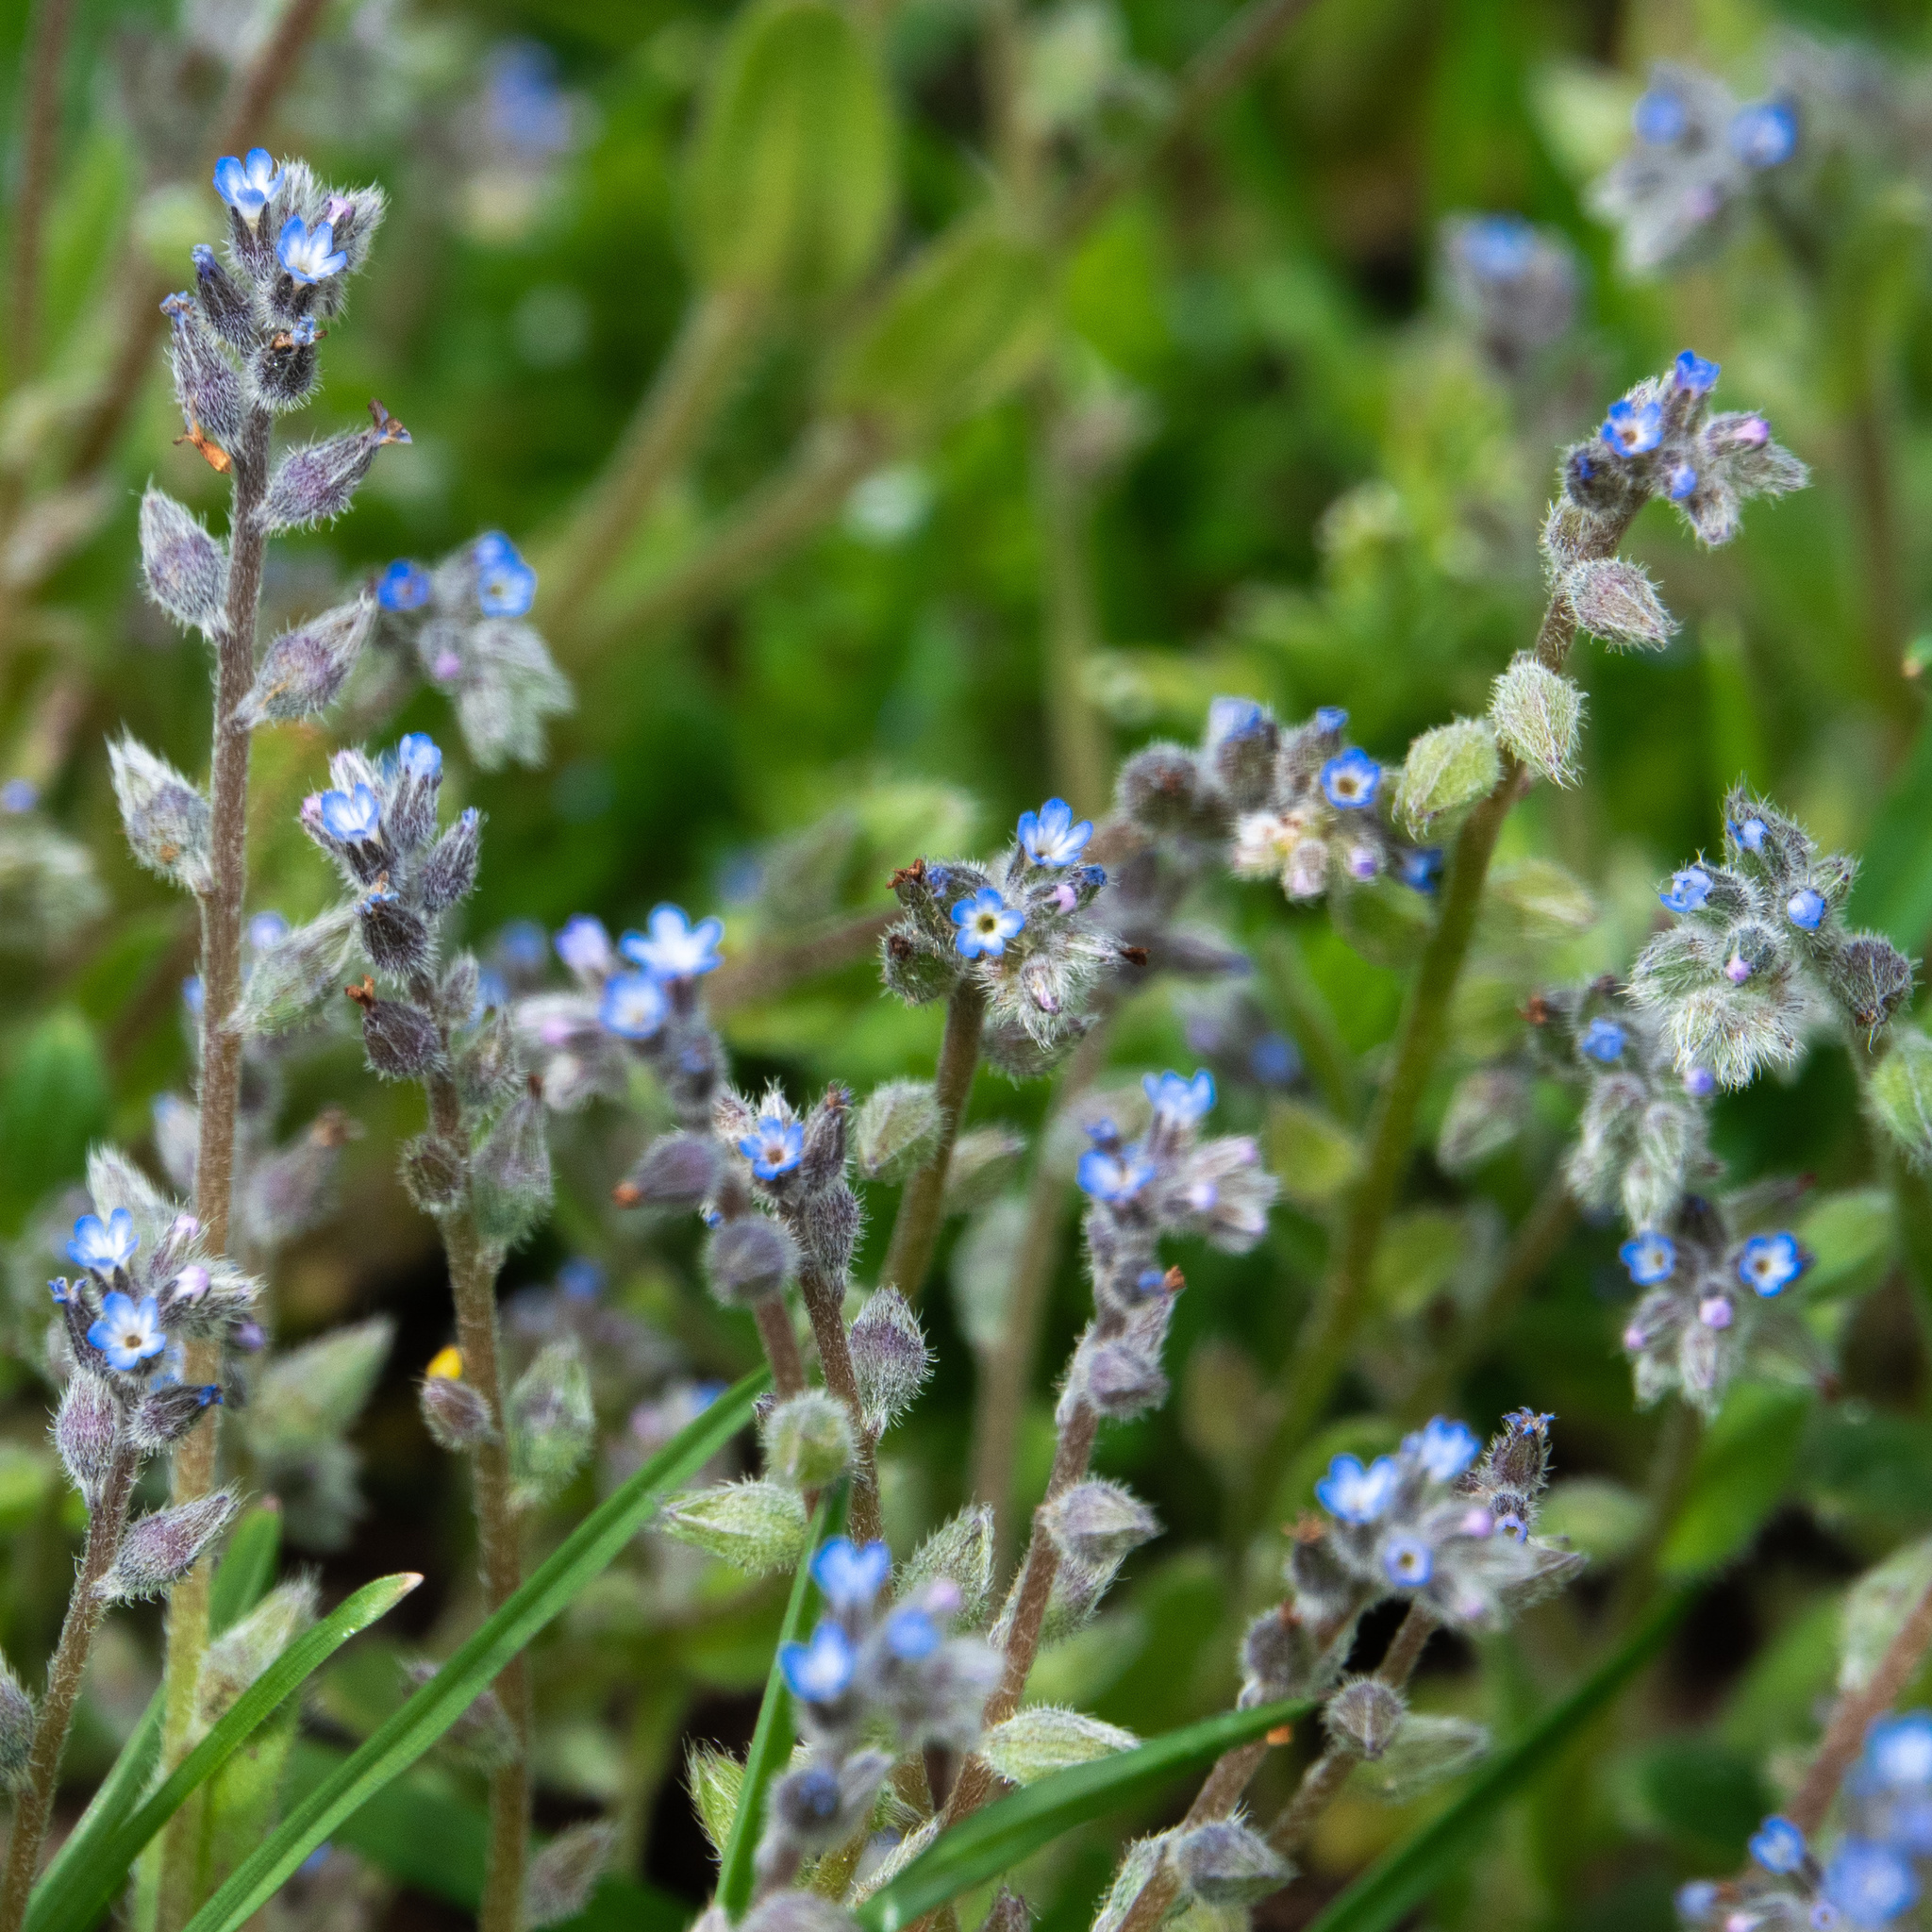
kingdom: Plantae
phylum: Tracheophyta
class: Magnoliopsida
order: Boraginales
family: Boraginaceae
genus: Myosotis
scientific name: Myosotis stricta
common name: Strict forget-me-not
